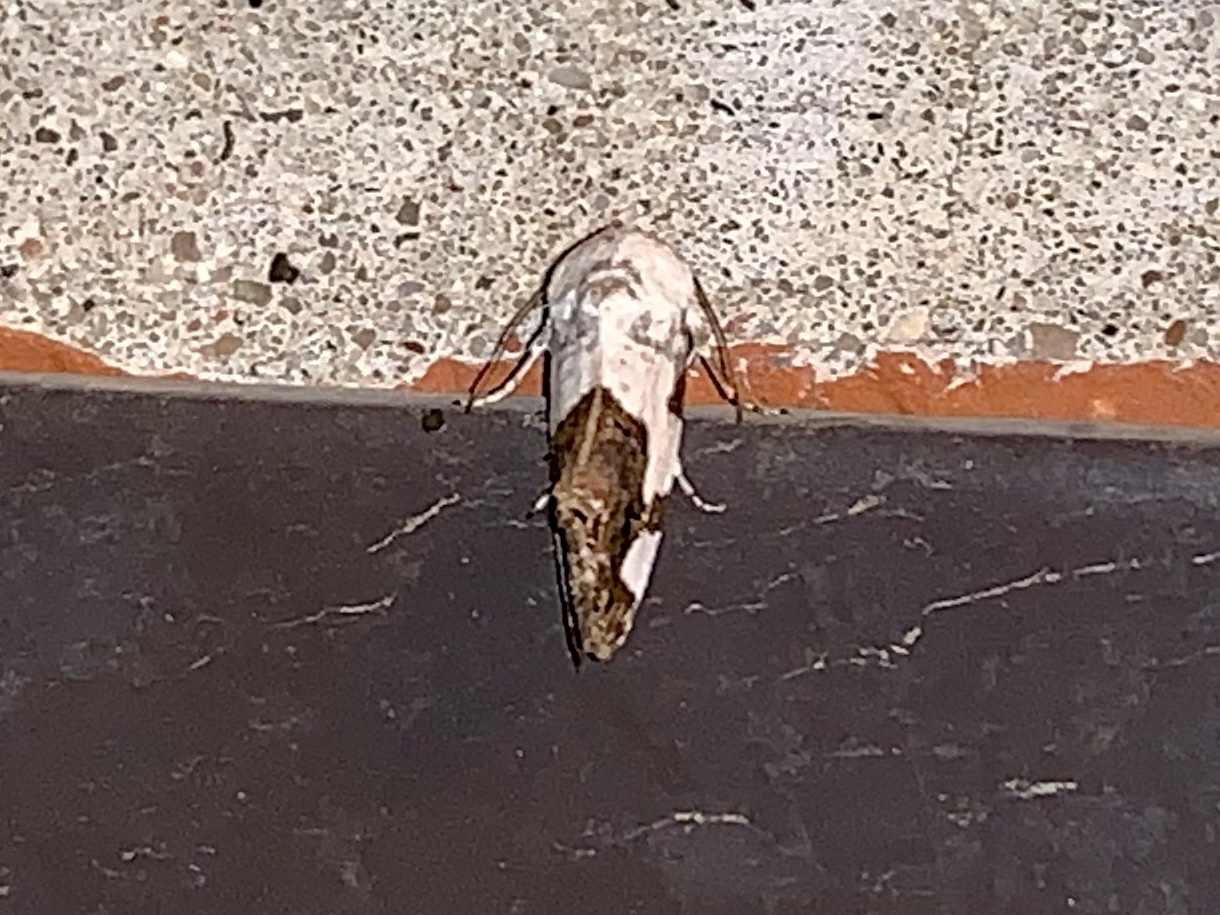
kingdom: Animalia
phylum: Arthropoda
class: Insecta
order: Lepidoptera
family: Noctuidae
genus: Acontia
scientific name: Acontia quadriplaga
